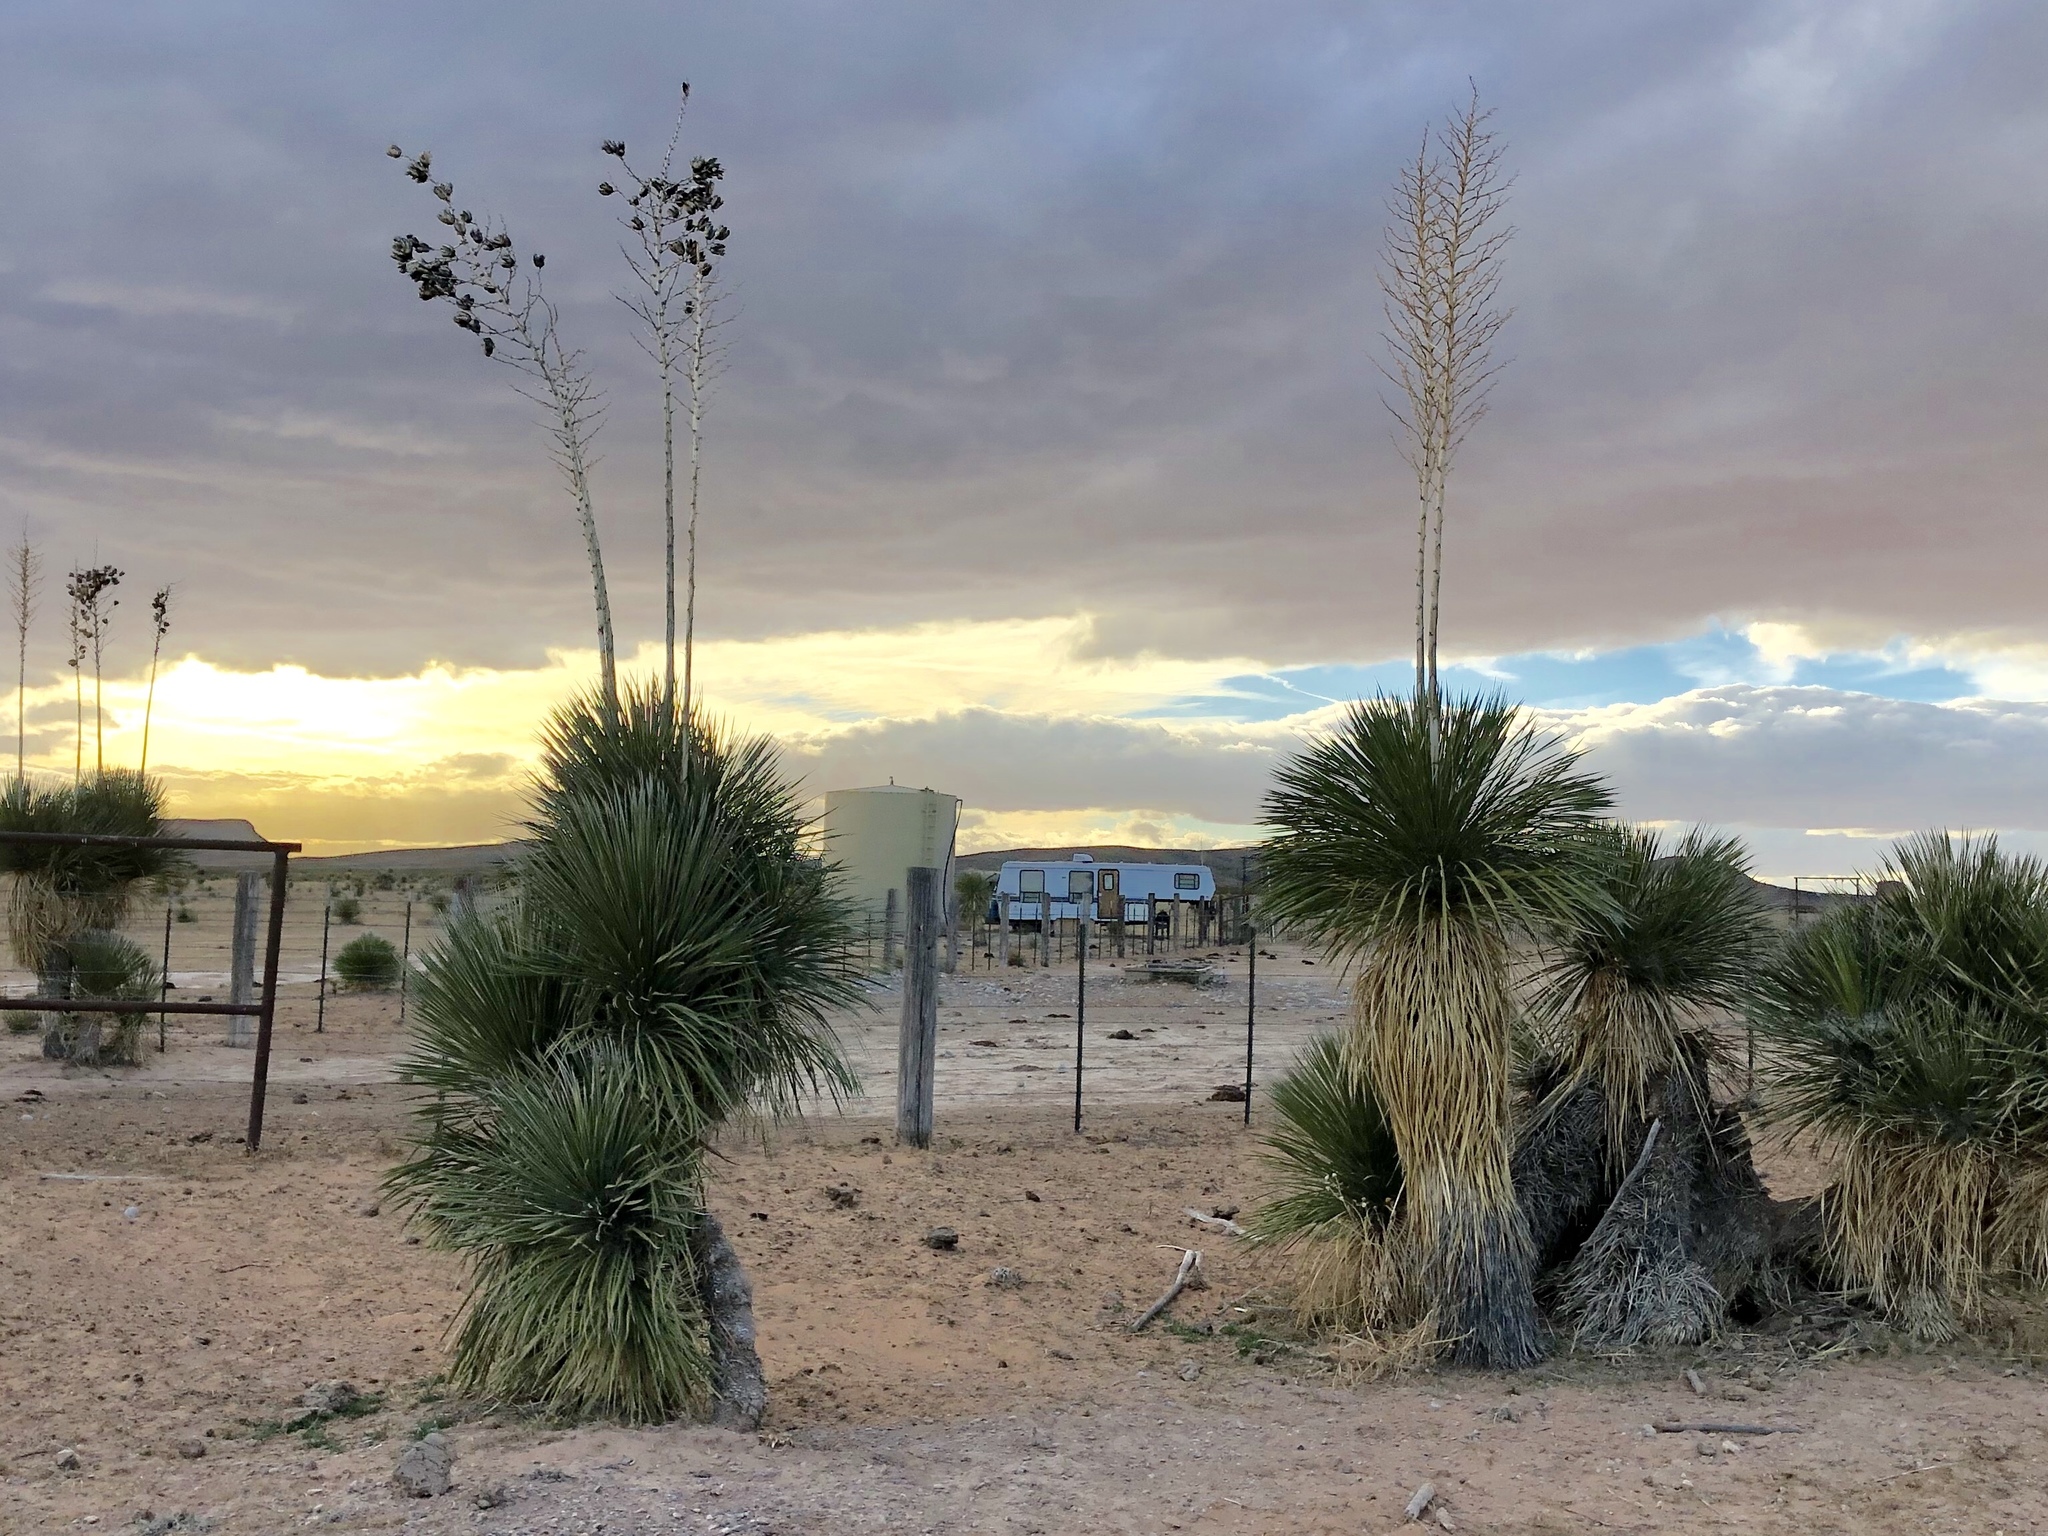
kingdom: Plantae
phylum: Tracheophyta
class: Liliopsida
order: Asparagales
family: Asparagaceae
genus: Yucca
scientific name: Yucca elata
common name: Palmella
